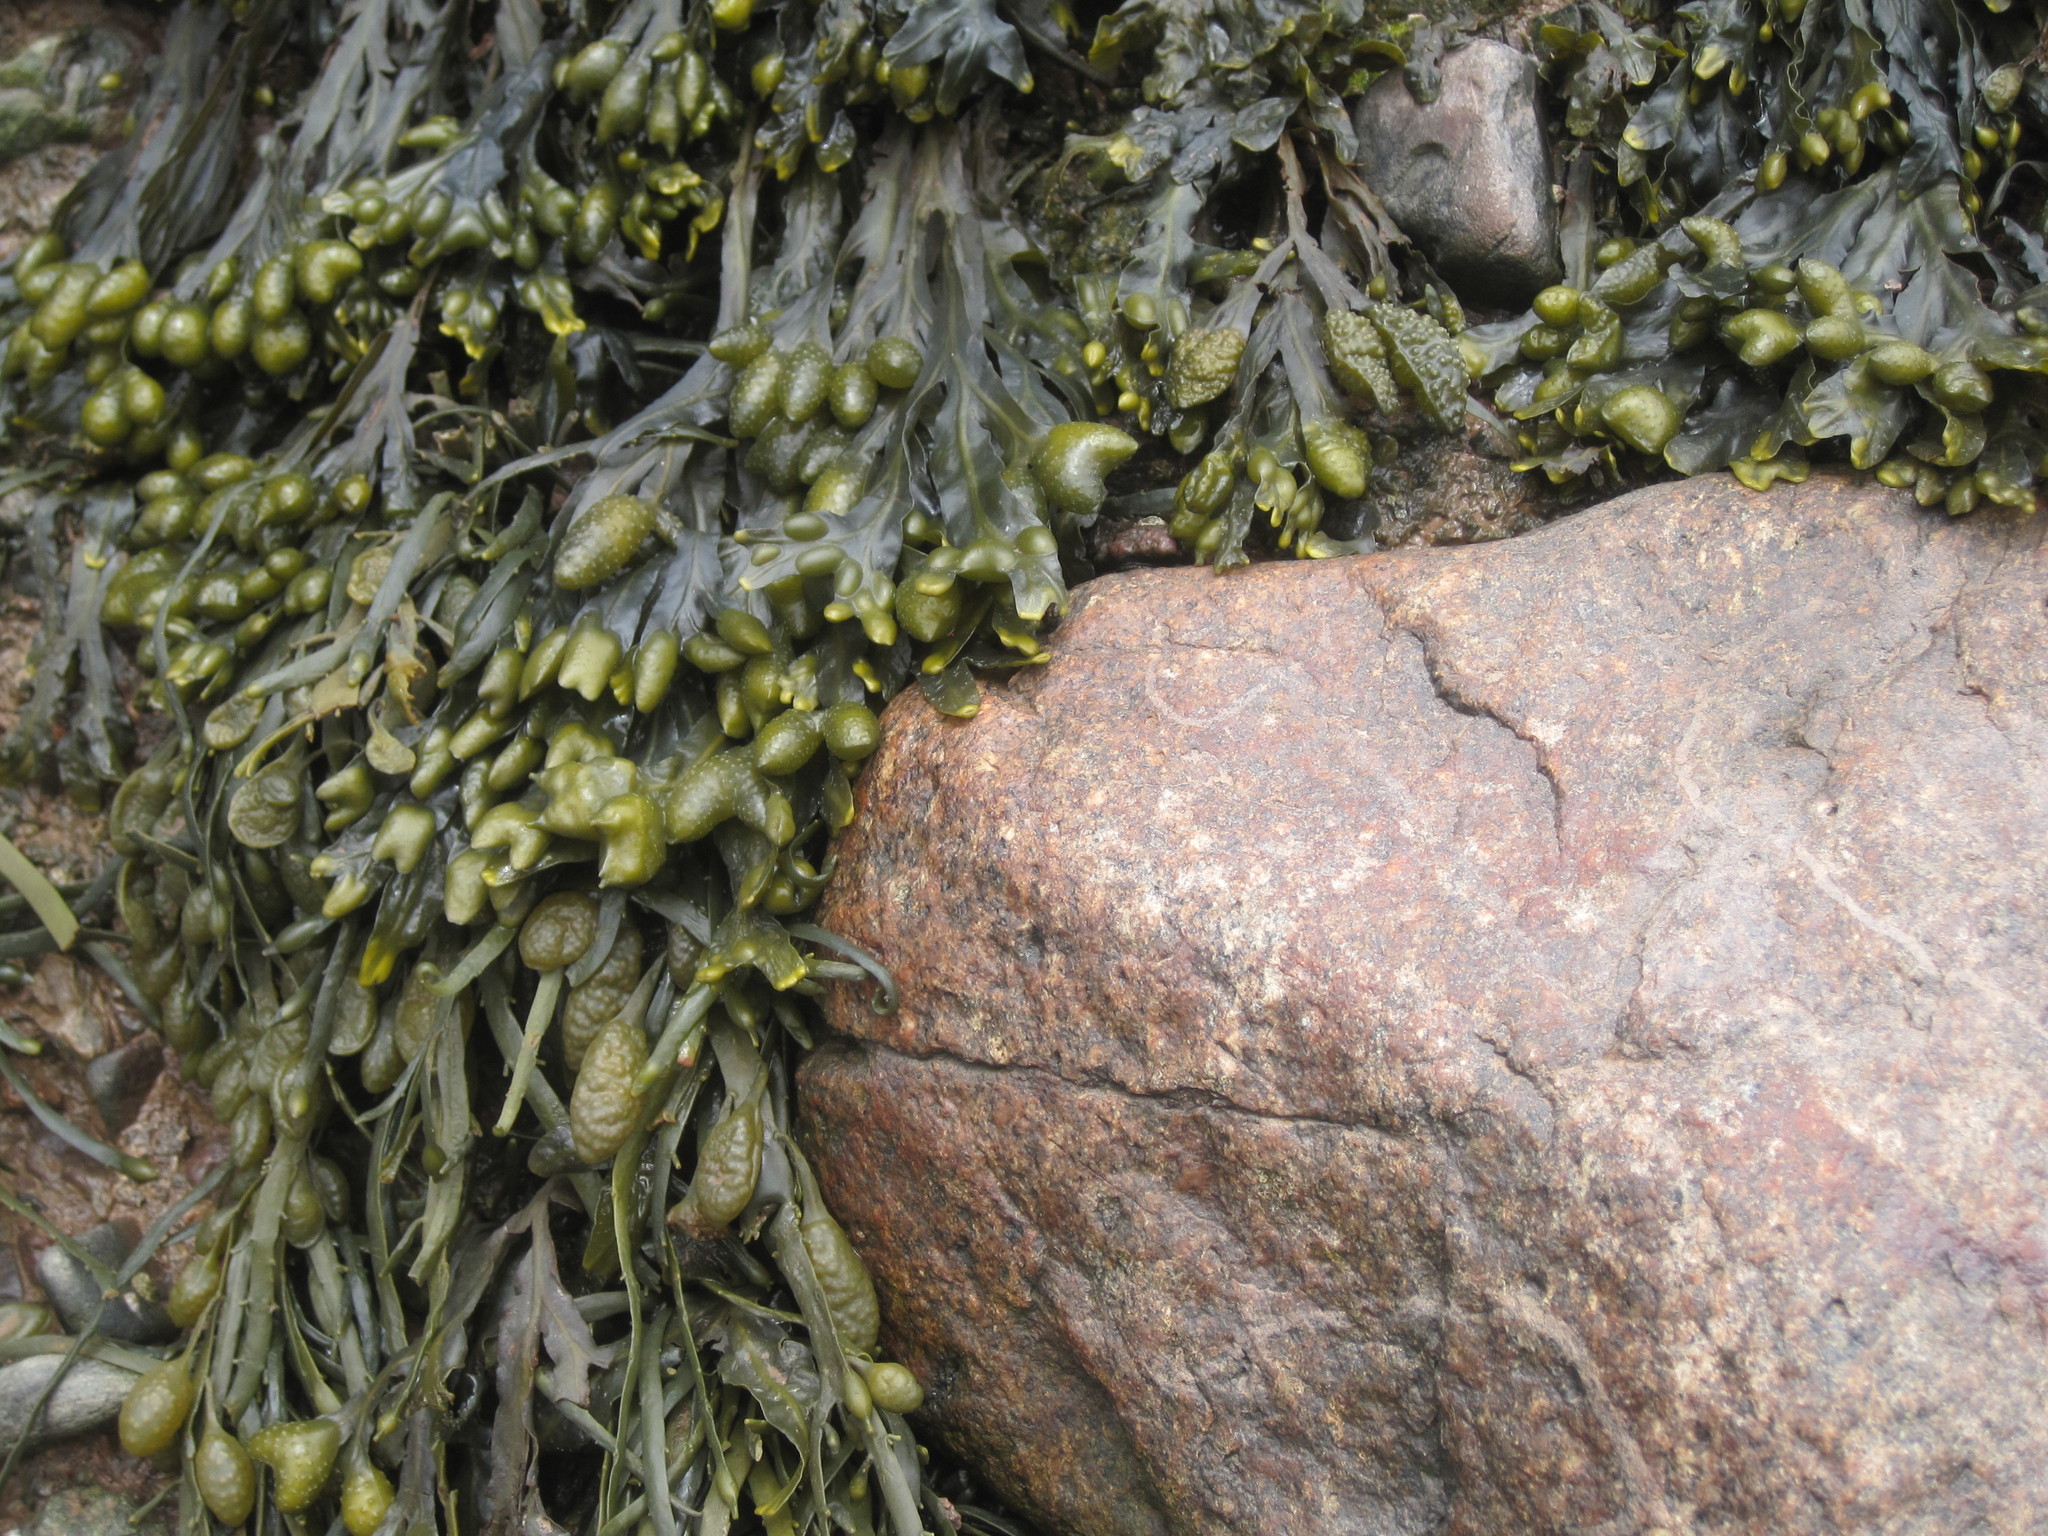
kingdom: Chromista
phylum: Ochrophyta
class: Phaeophyceae
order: Fucales
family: Fucaceae
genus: Fucus
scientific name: Fucus distichus
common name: Rockweed
